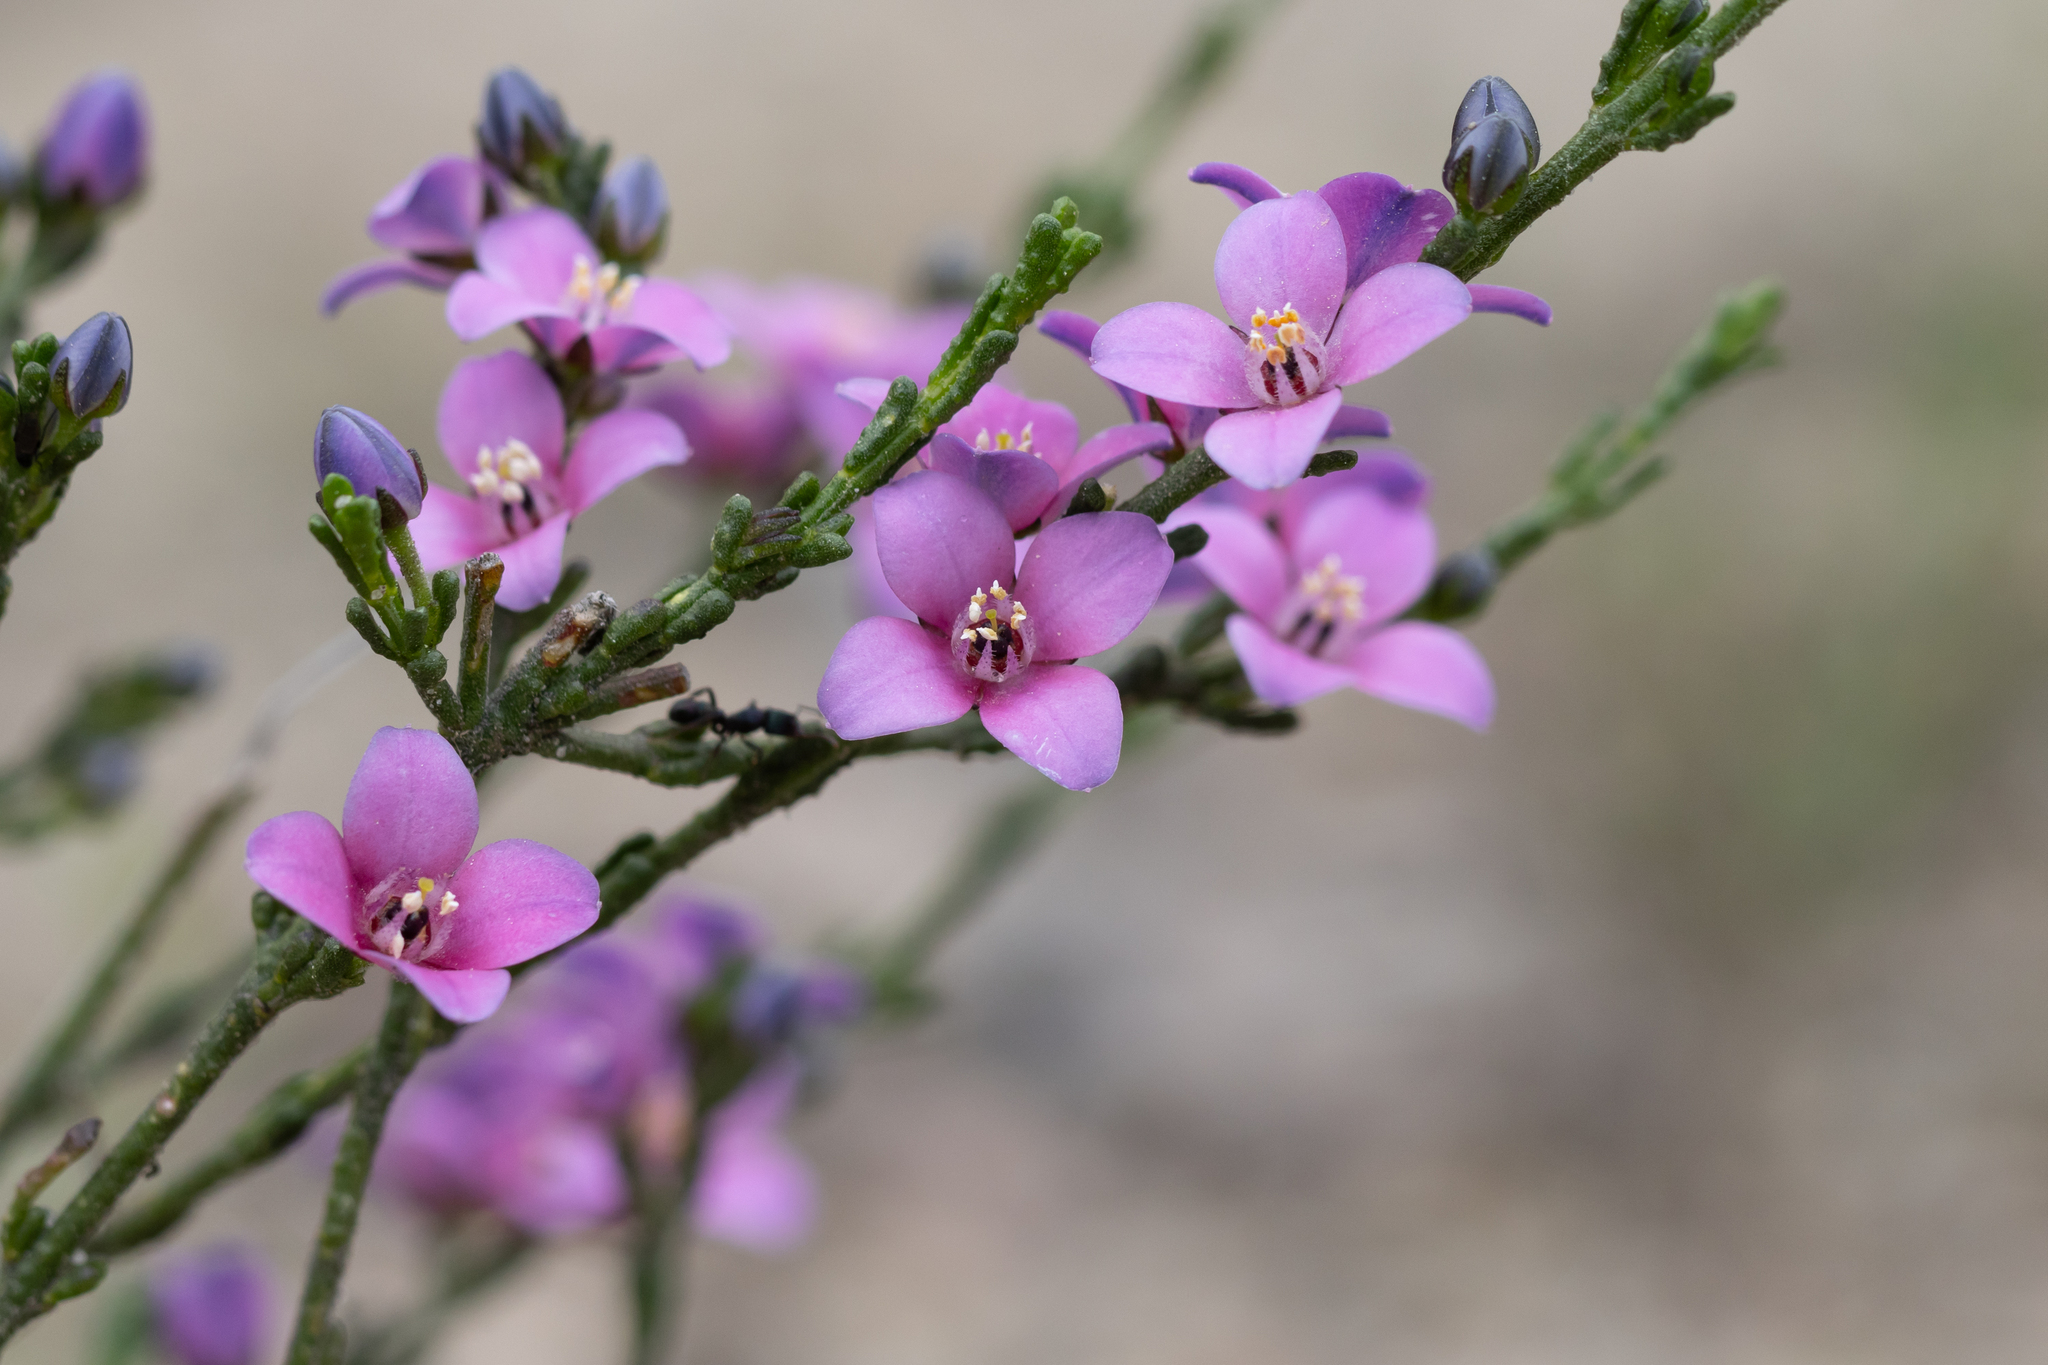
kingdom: Plantae
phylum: Tracheophyta
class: Magnoliopsida
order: Sapindales
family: Rutaceae
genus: Cyanothamnus
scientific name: Cyanothamnus coerulescens
